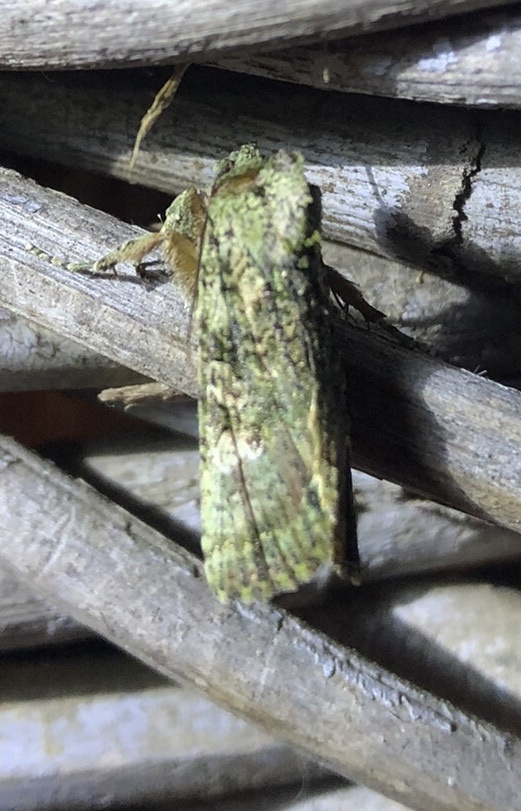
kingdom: Animalia
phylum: Arthropoda
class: Insecta
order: Lepidoptera
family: Noctuidae
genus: Meterana
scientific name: Meterana levis
